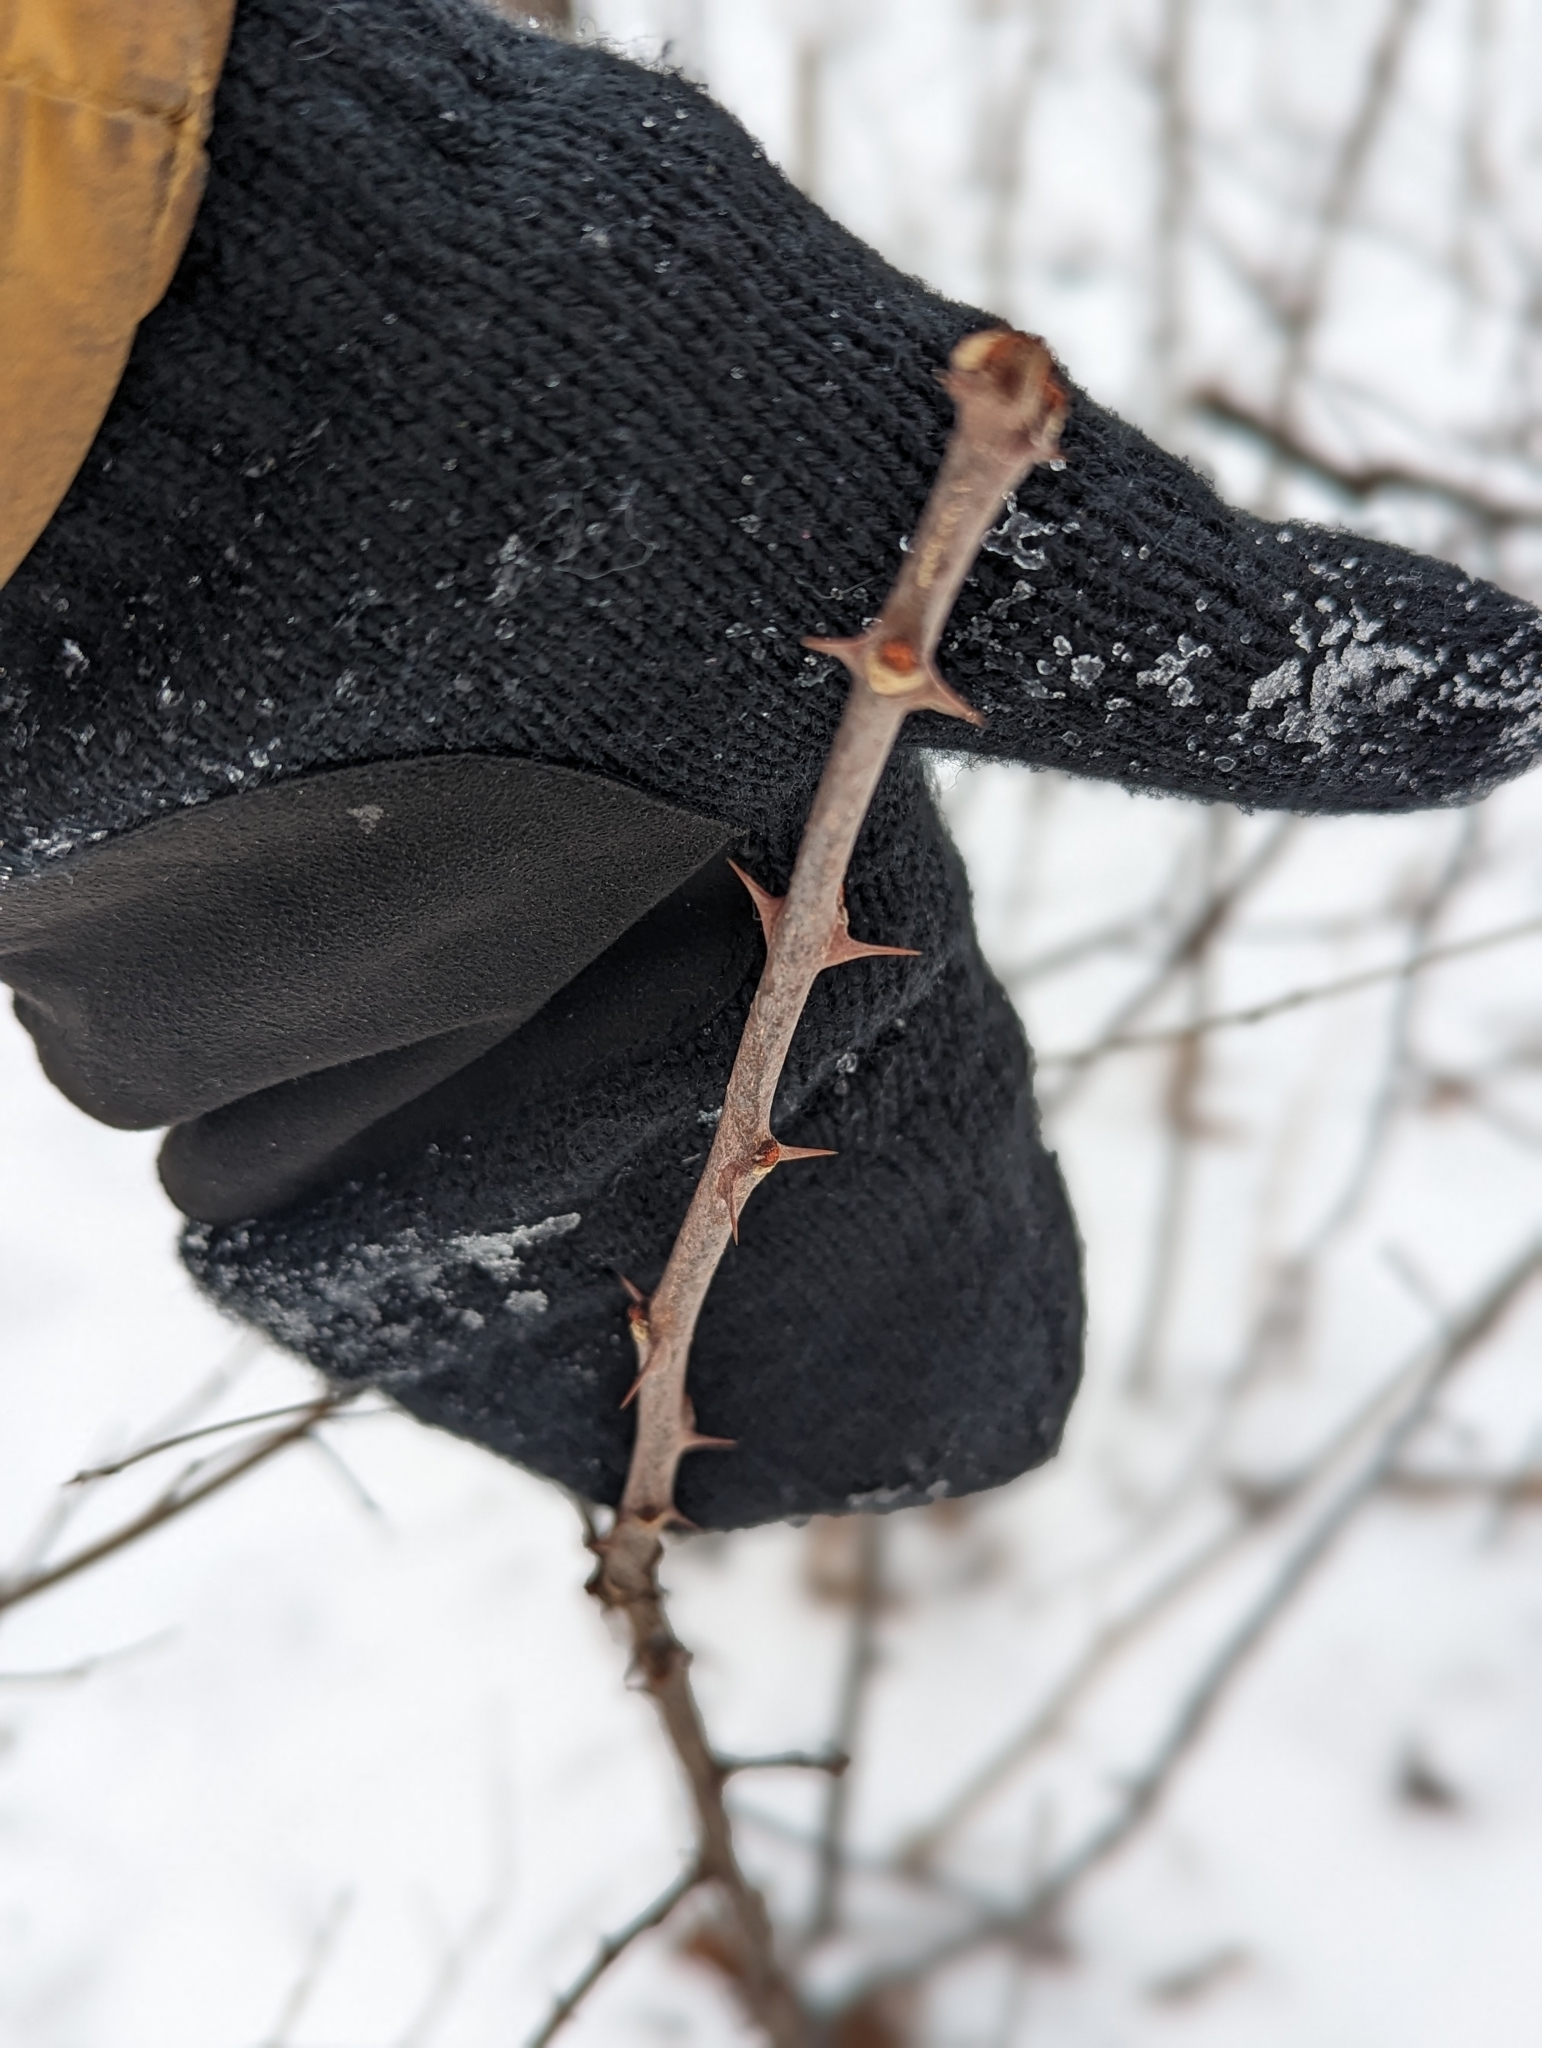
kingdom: Plantae
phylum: Tracheophyta
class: Magnoliopsida
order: Sapindales
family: Rutaceae
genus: Zanthoxylum
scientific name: Zanthoxylum americanum
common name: Northern prickly-ash
